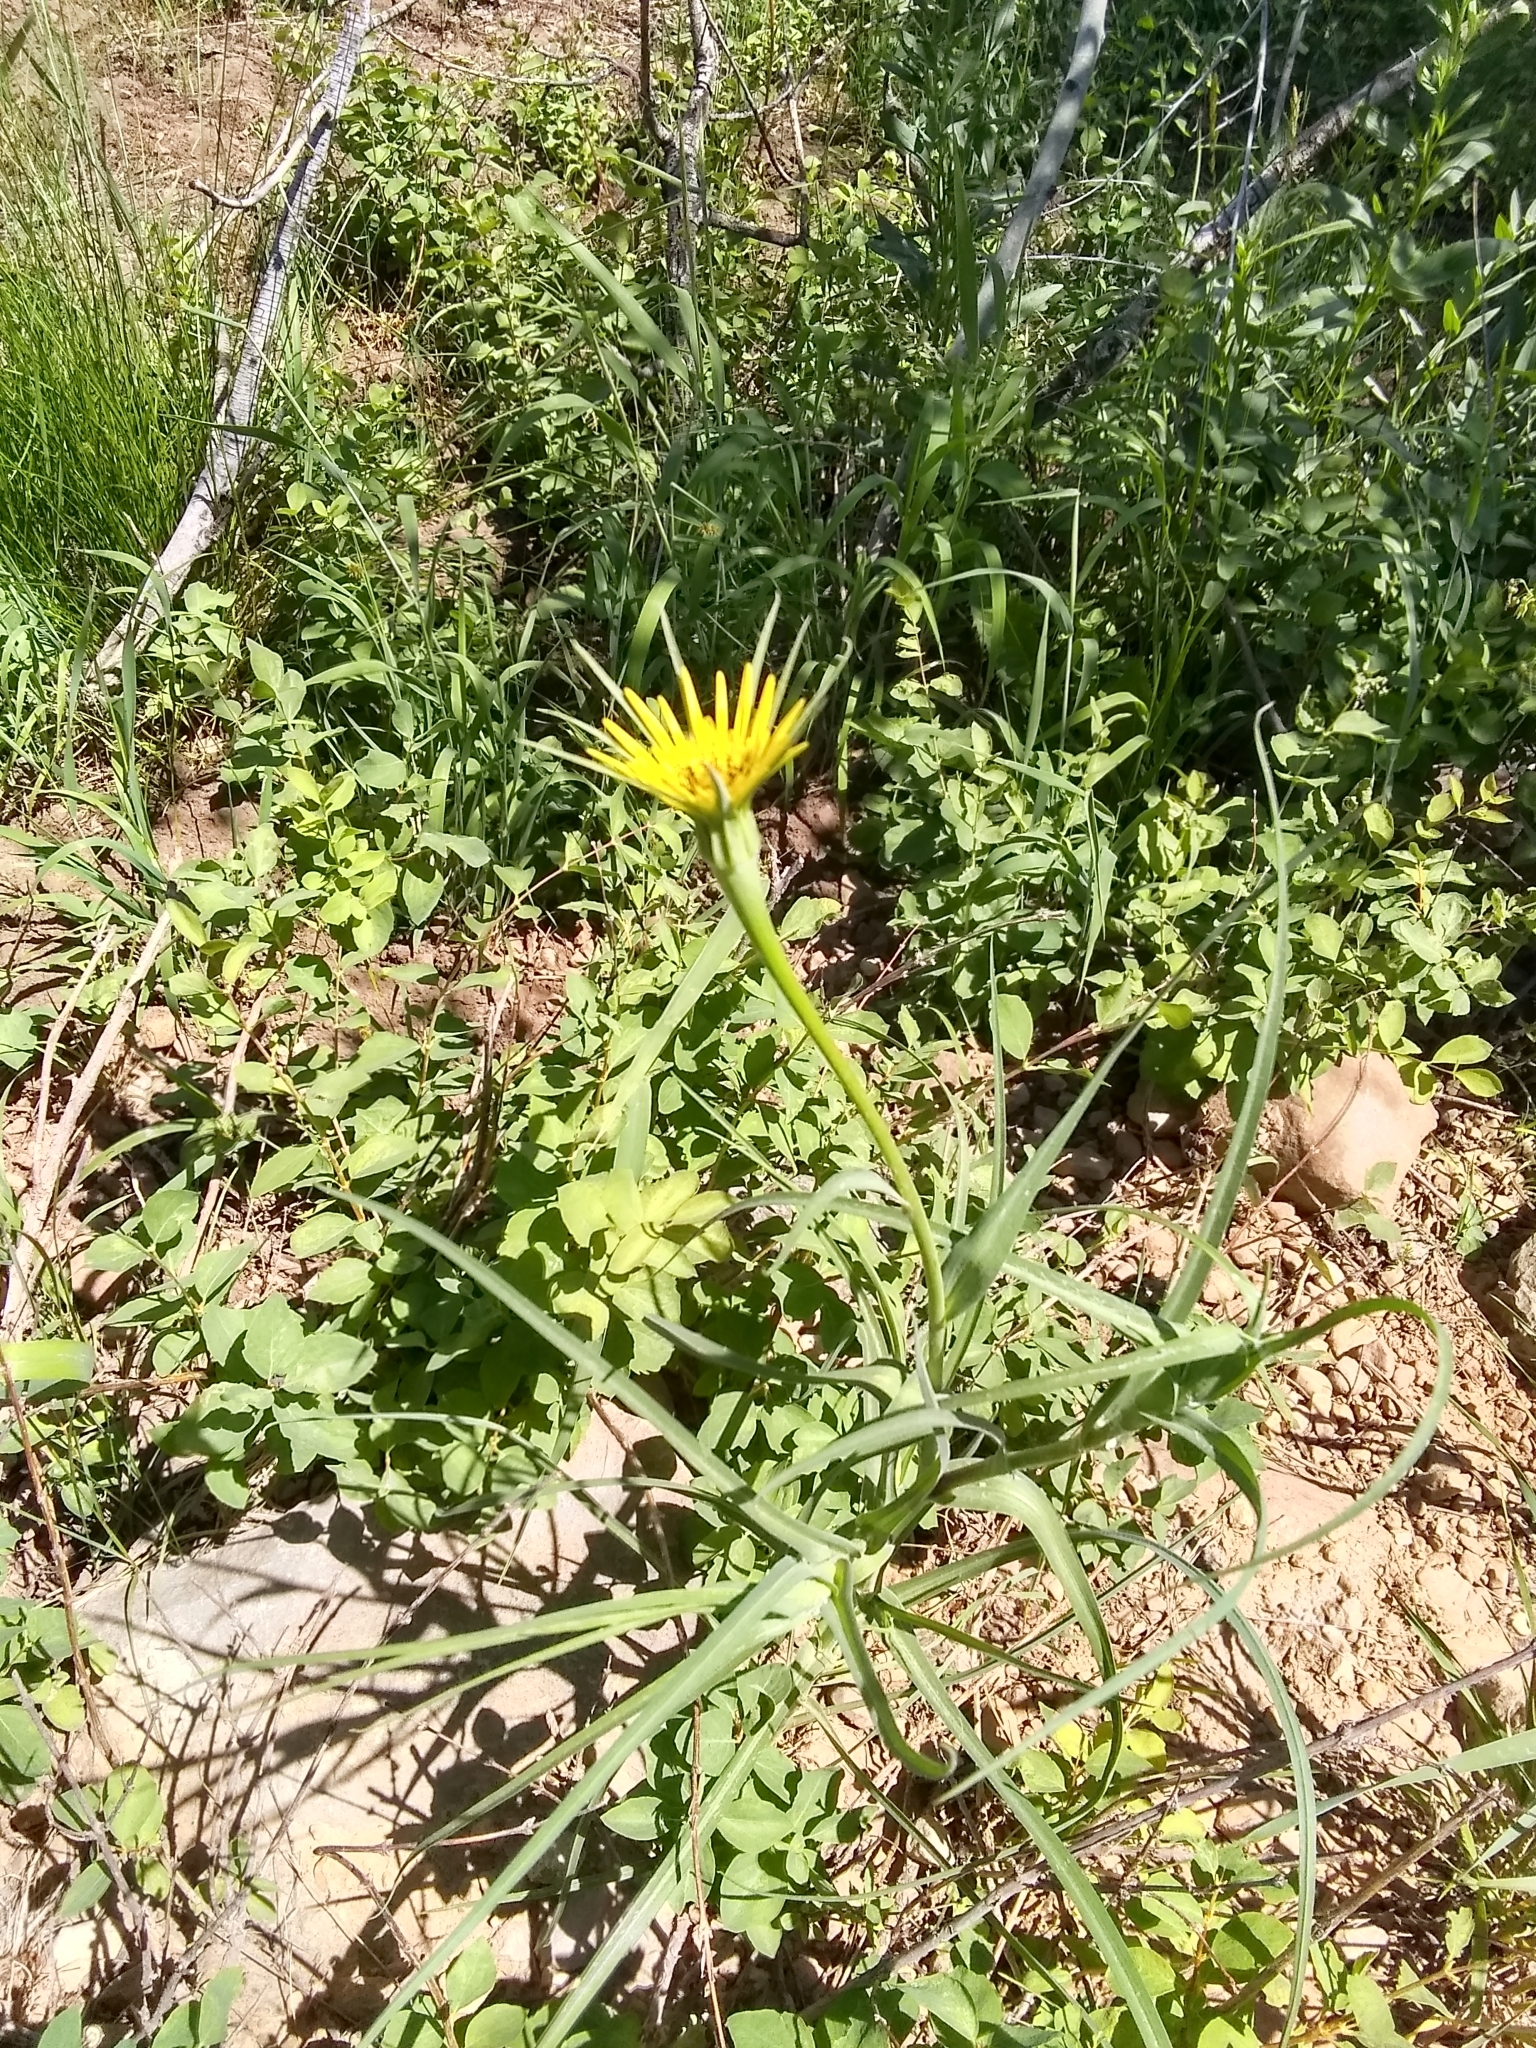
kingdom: Plantae
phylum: Tracheophyta
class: Magnoliopsida
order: Asterales
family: Asteraceae
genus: Tragopogon
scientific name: Tragopogon dubius
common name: Yellow salsify
